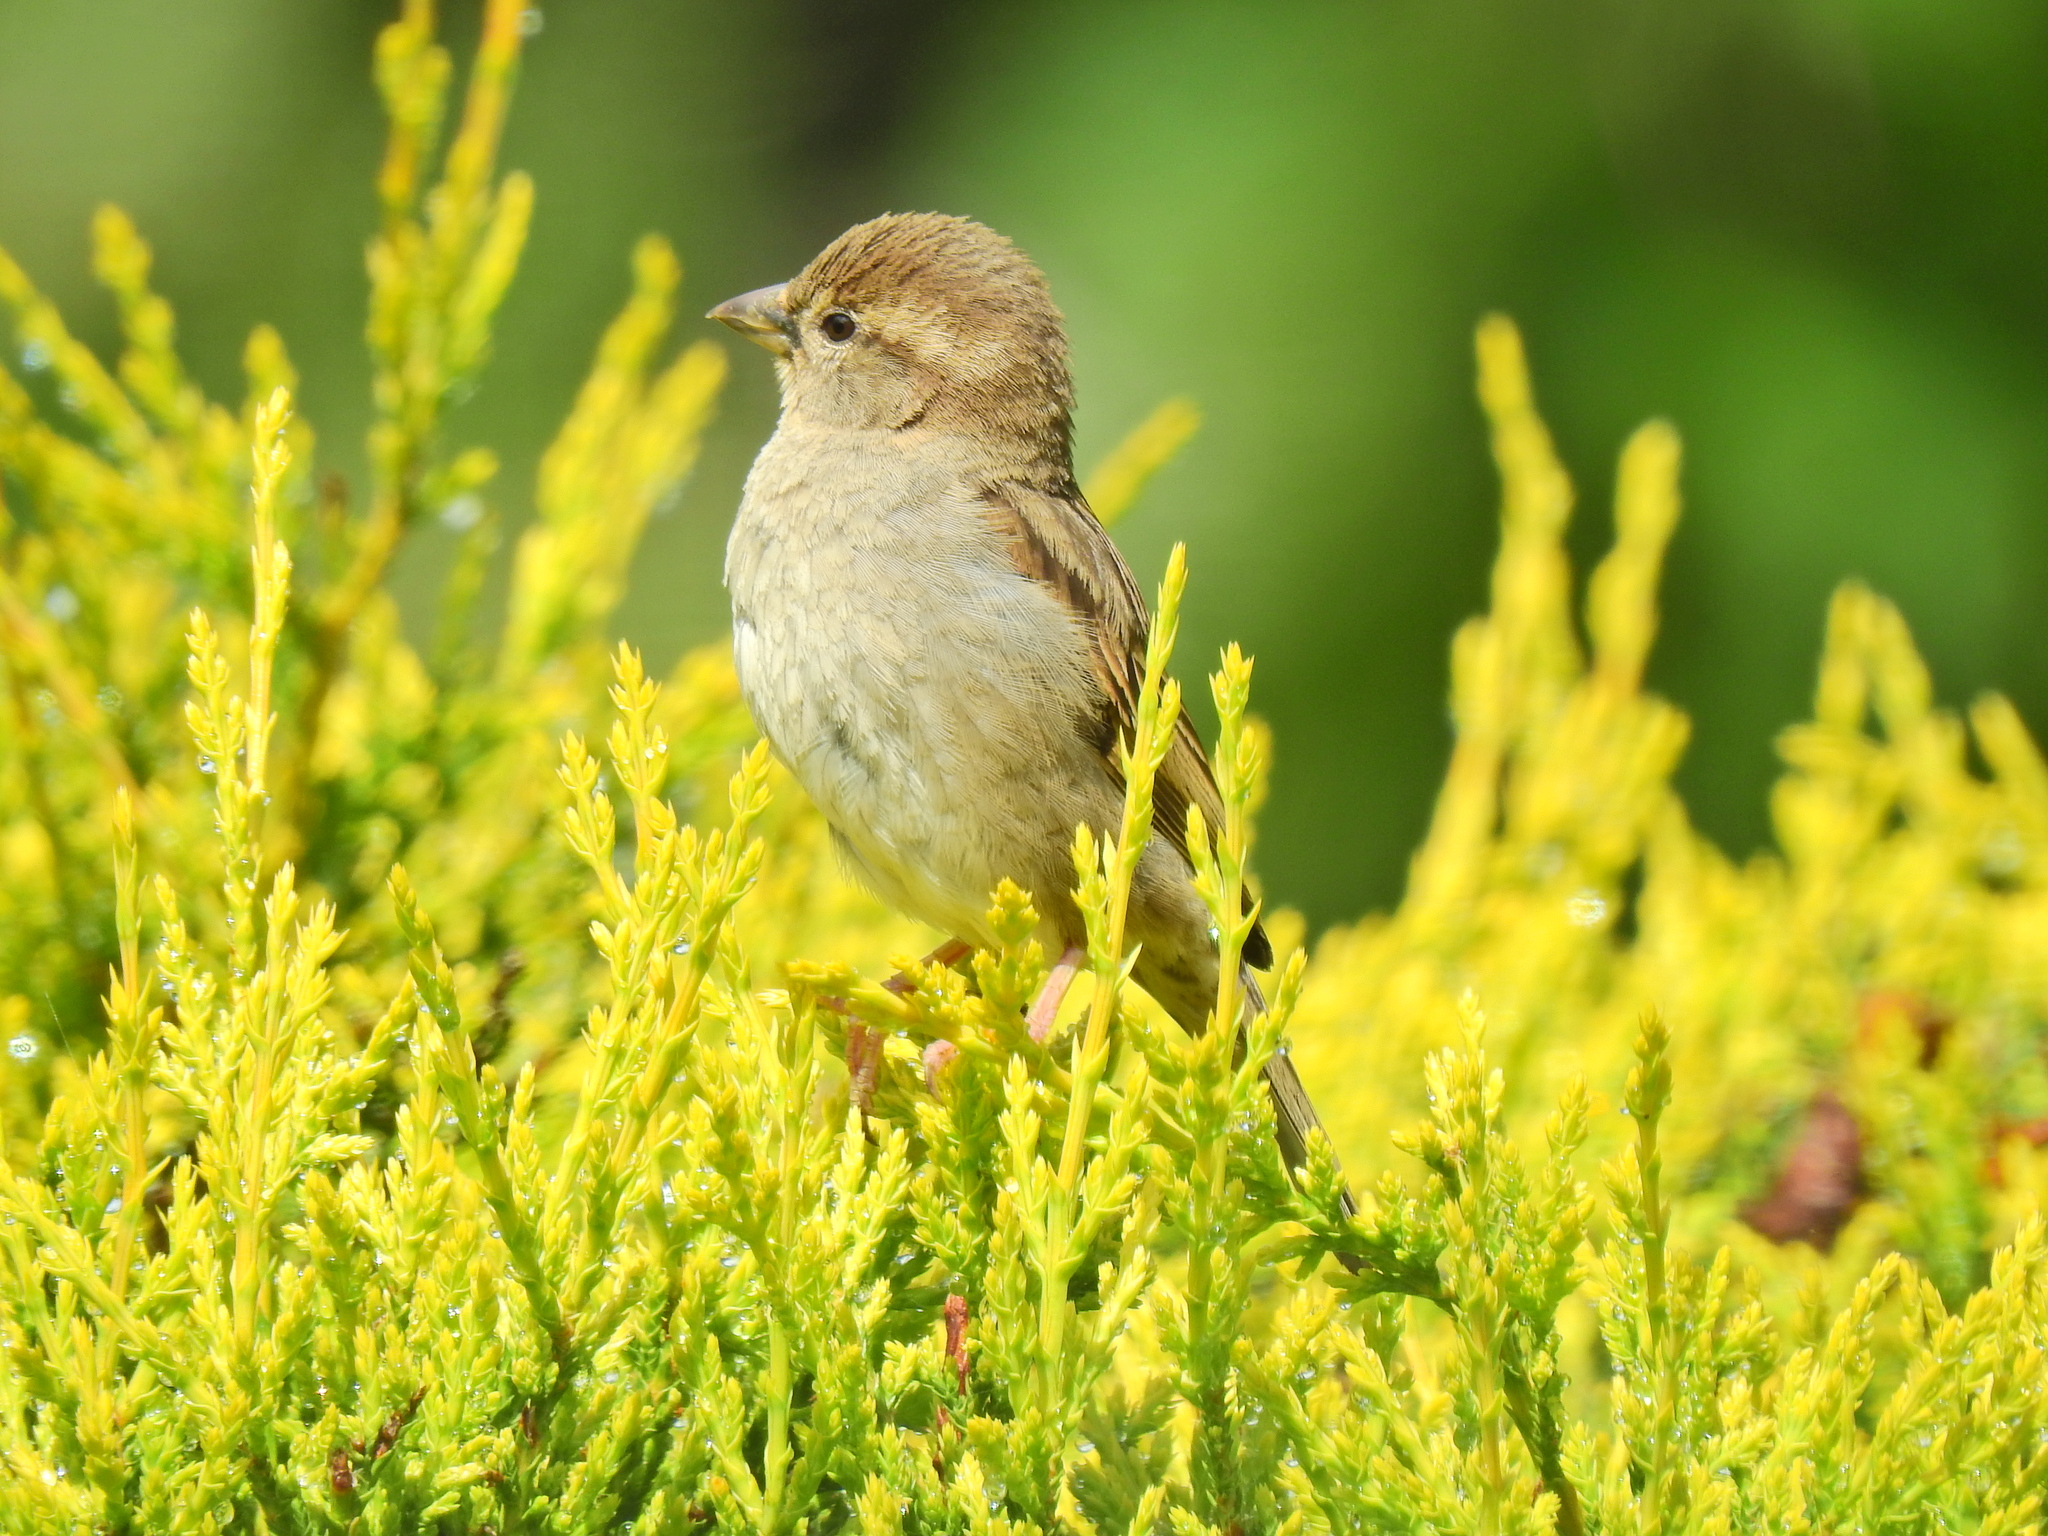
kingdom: Animalia
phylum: Chordata
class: Aves
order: Passeriformes
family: Passeridae
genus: Passer
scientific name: Passer domesticus
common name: House sparrow
